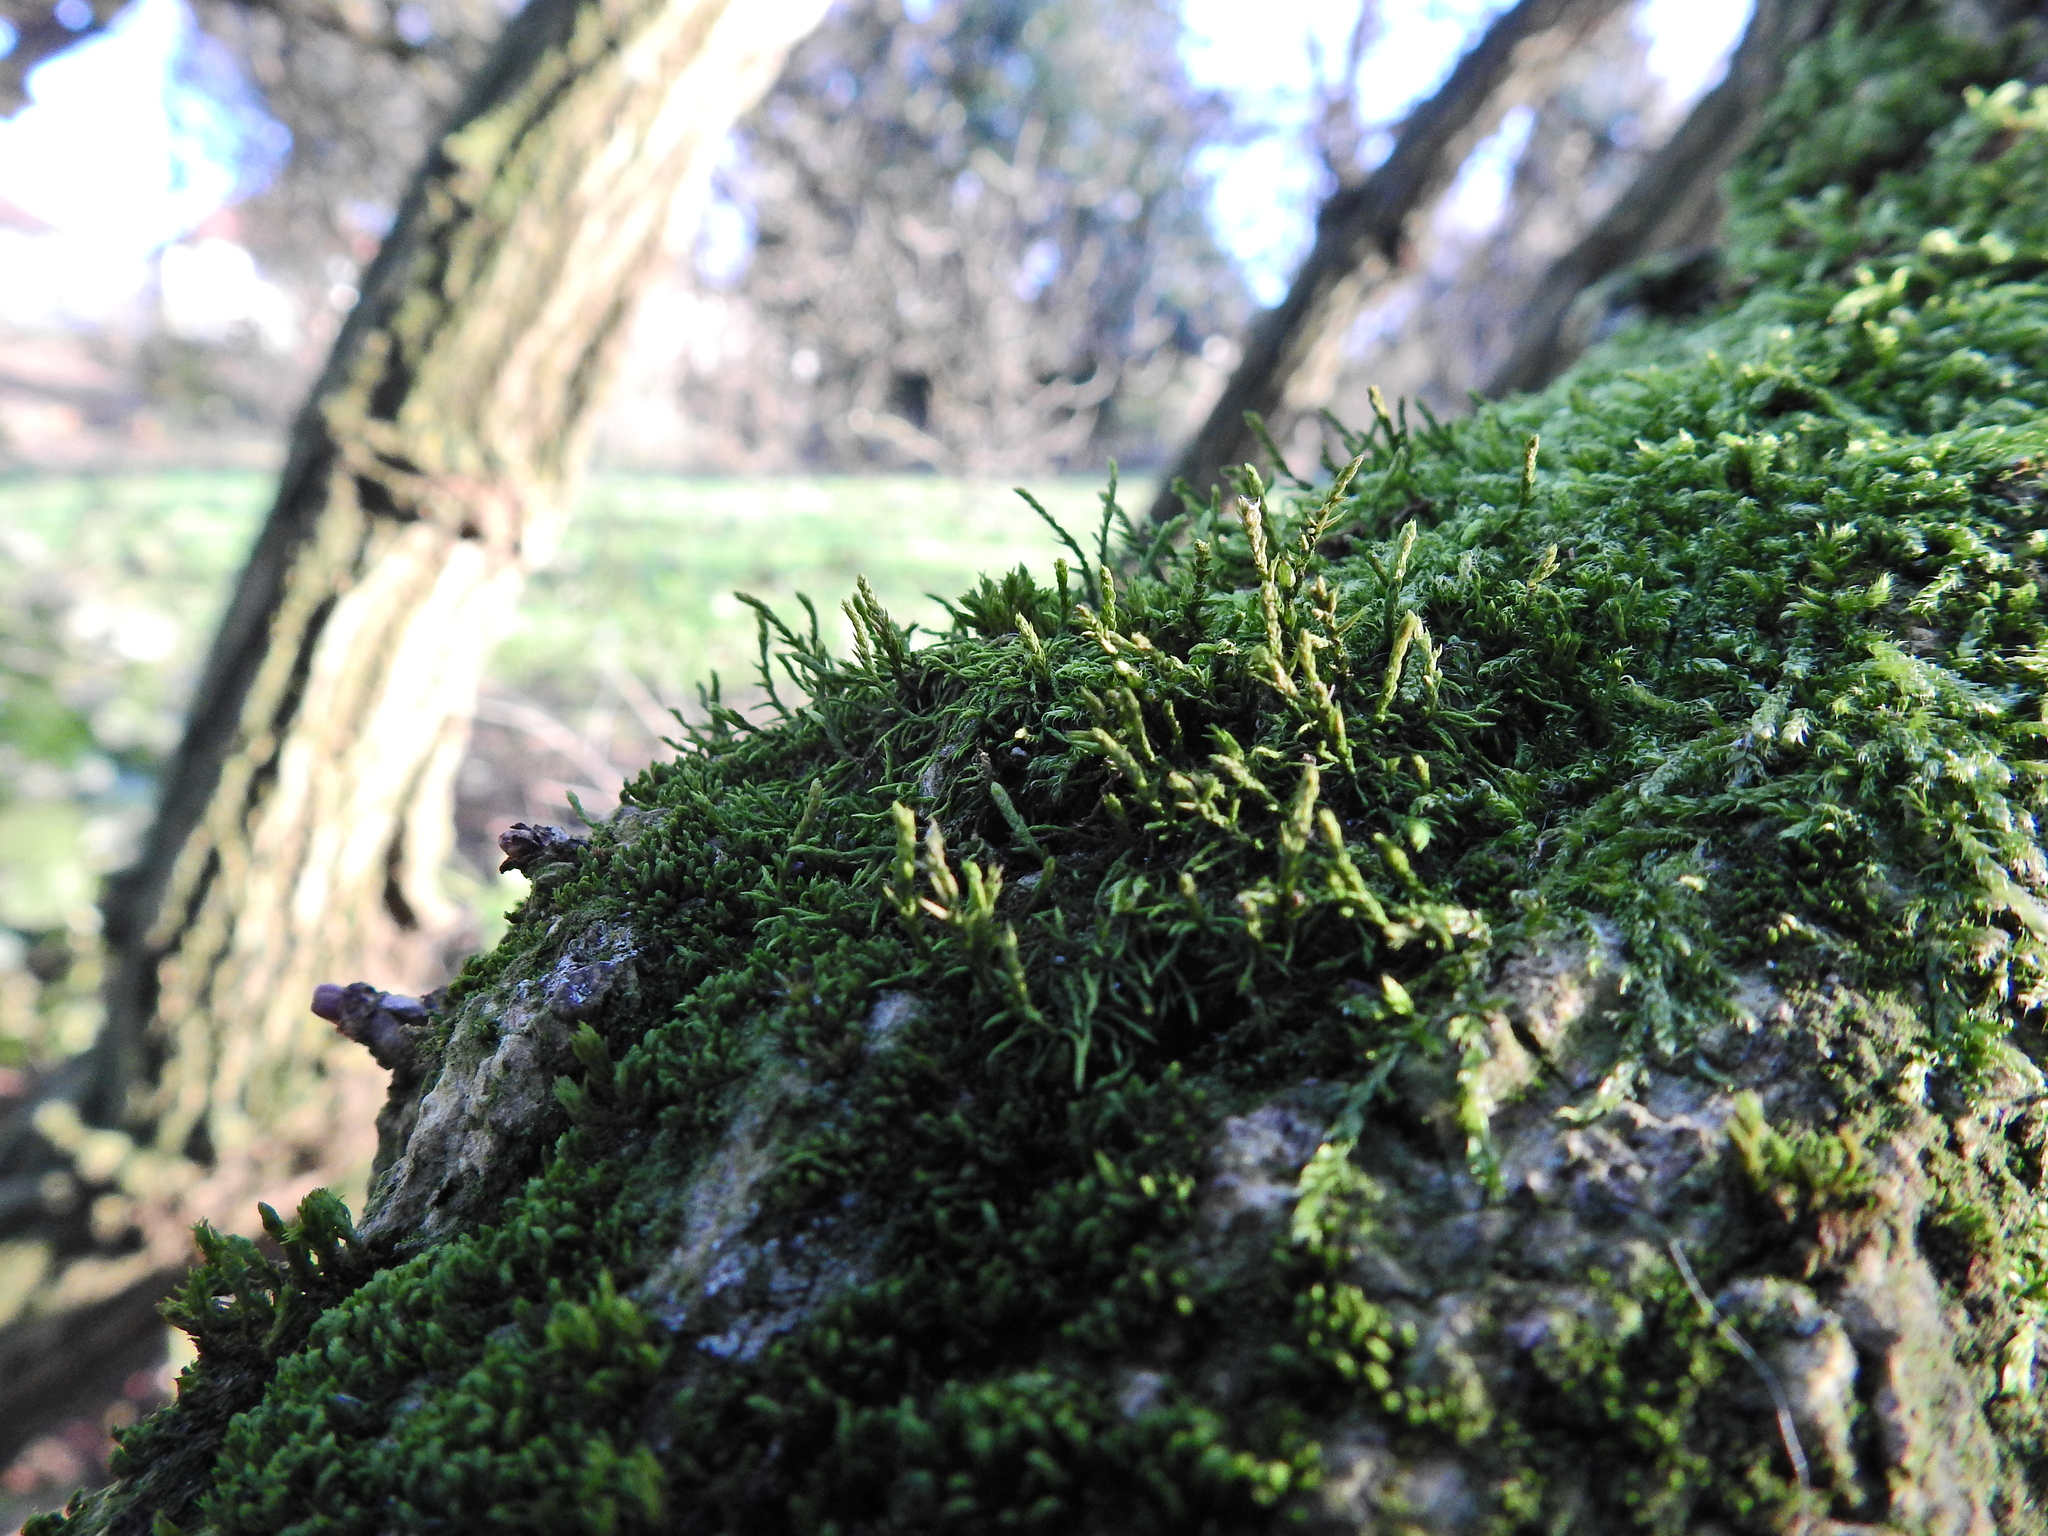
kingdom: Plantae
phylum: Bryophyta
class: Bryopsida
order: Hypnales
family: Cryphaeaceae
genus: Cryphaea
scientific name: Cryphaea heteromalla
